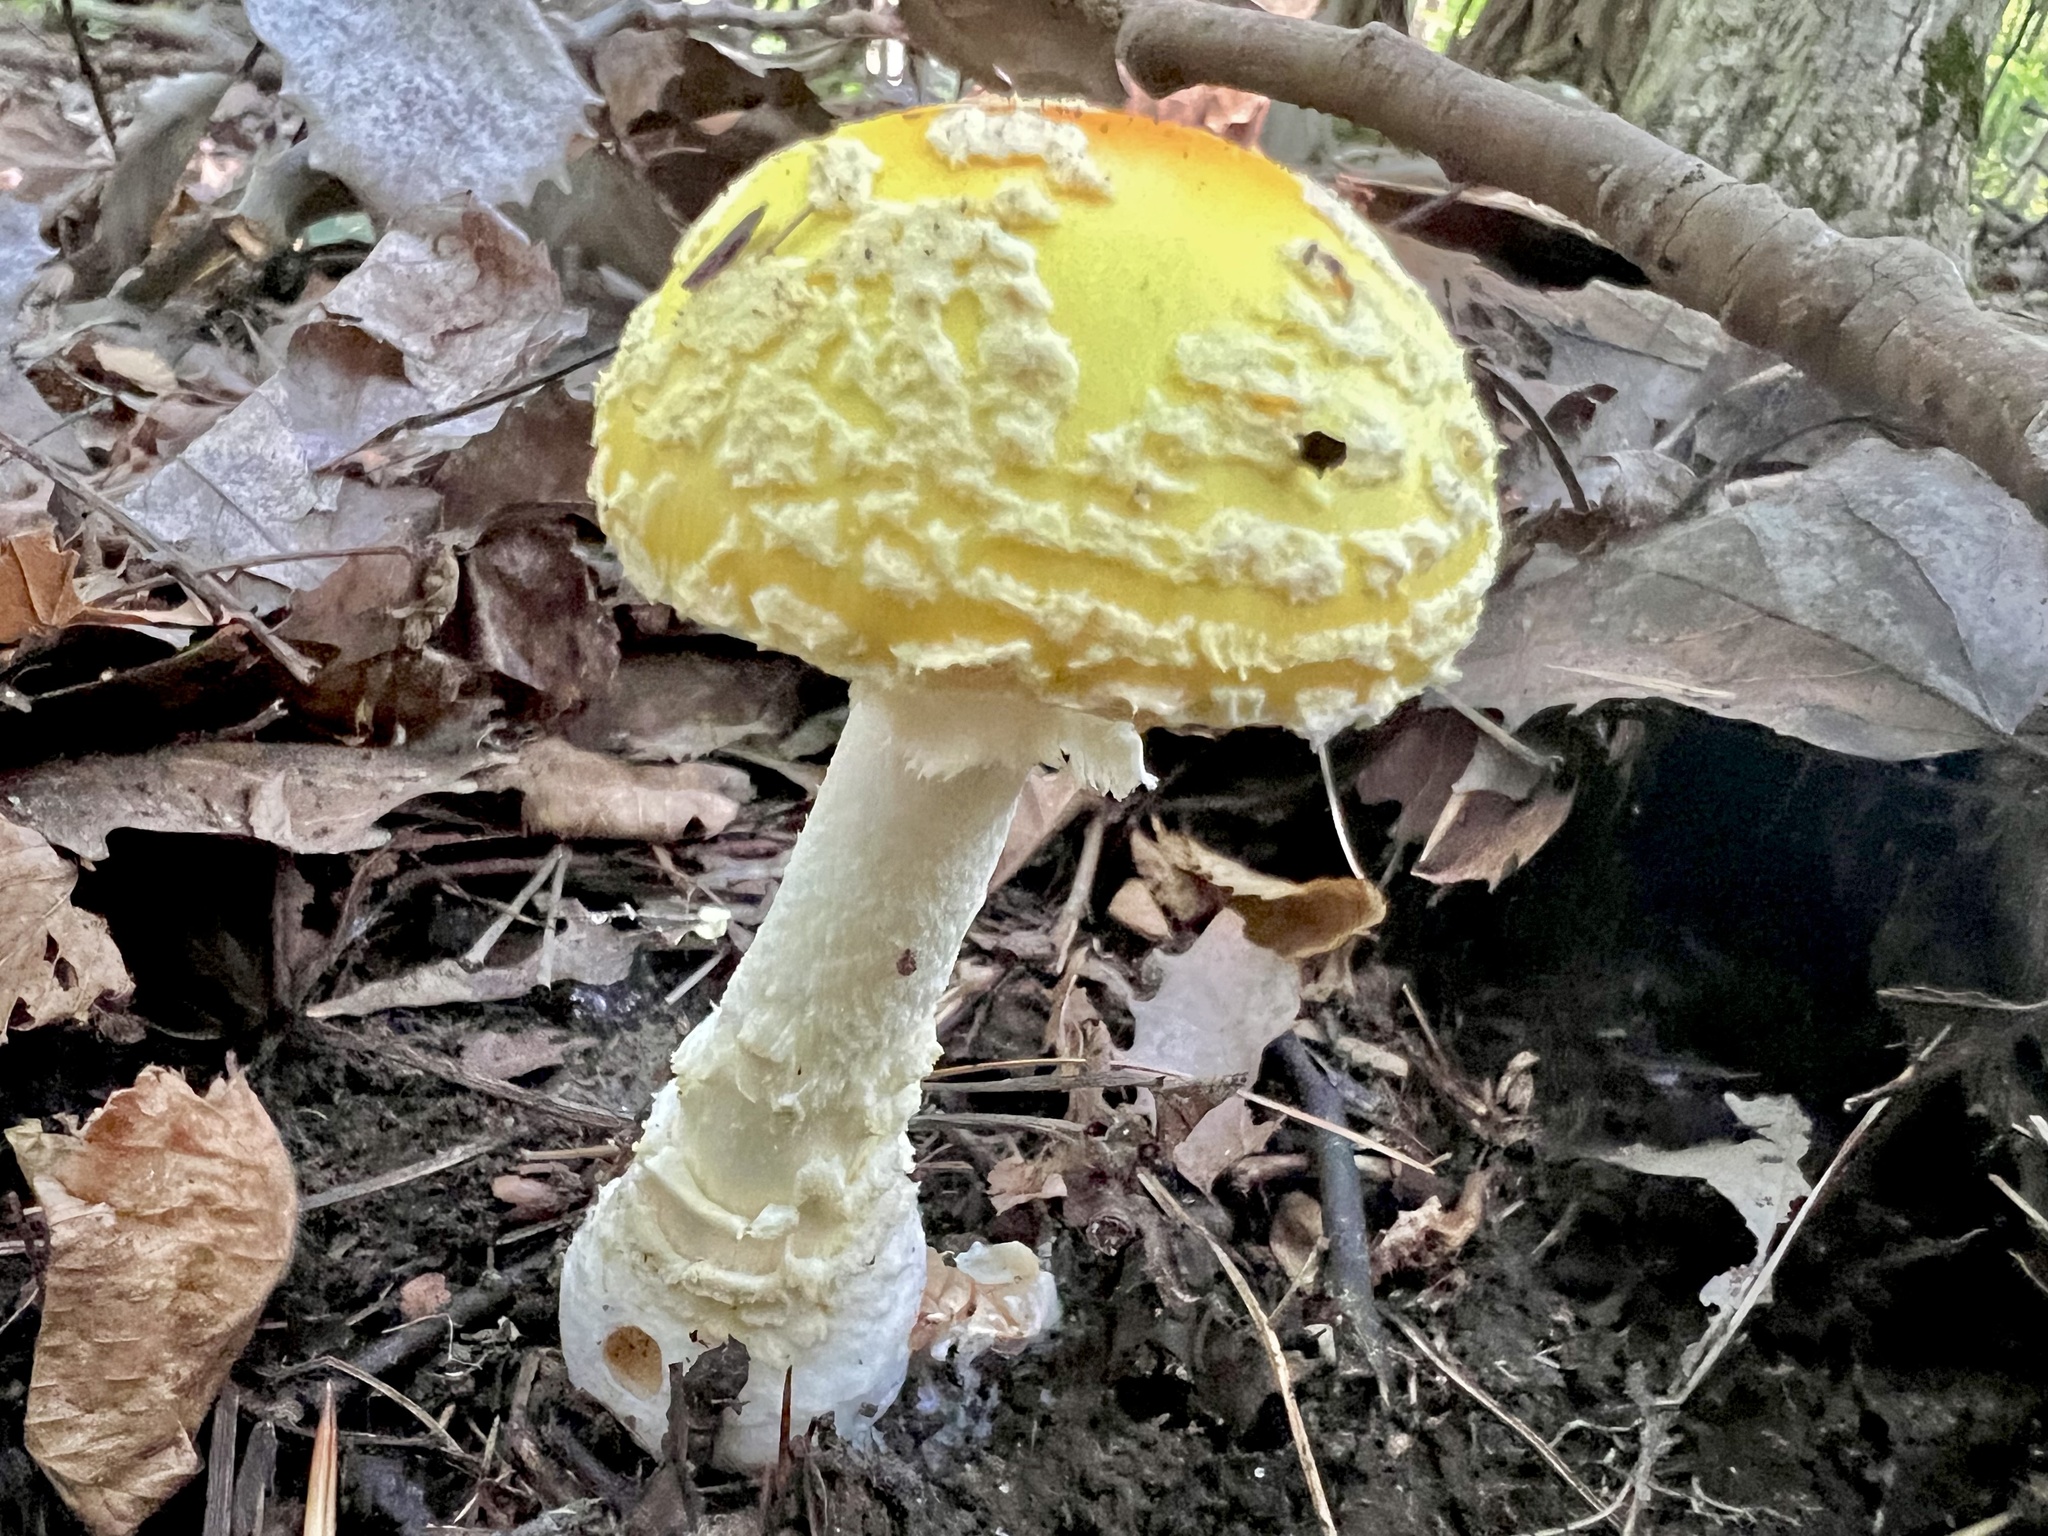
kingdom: Fungi
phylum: Basidiomycota
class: Agaricomycetes
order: Agaricales
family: Amanitaceae
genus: Amanita
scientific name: Amanita muscaria
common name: Fly agaric
